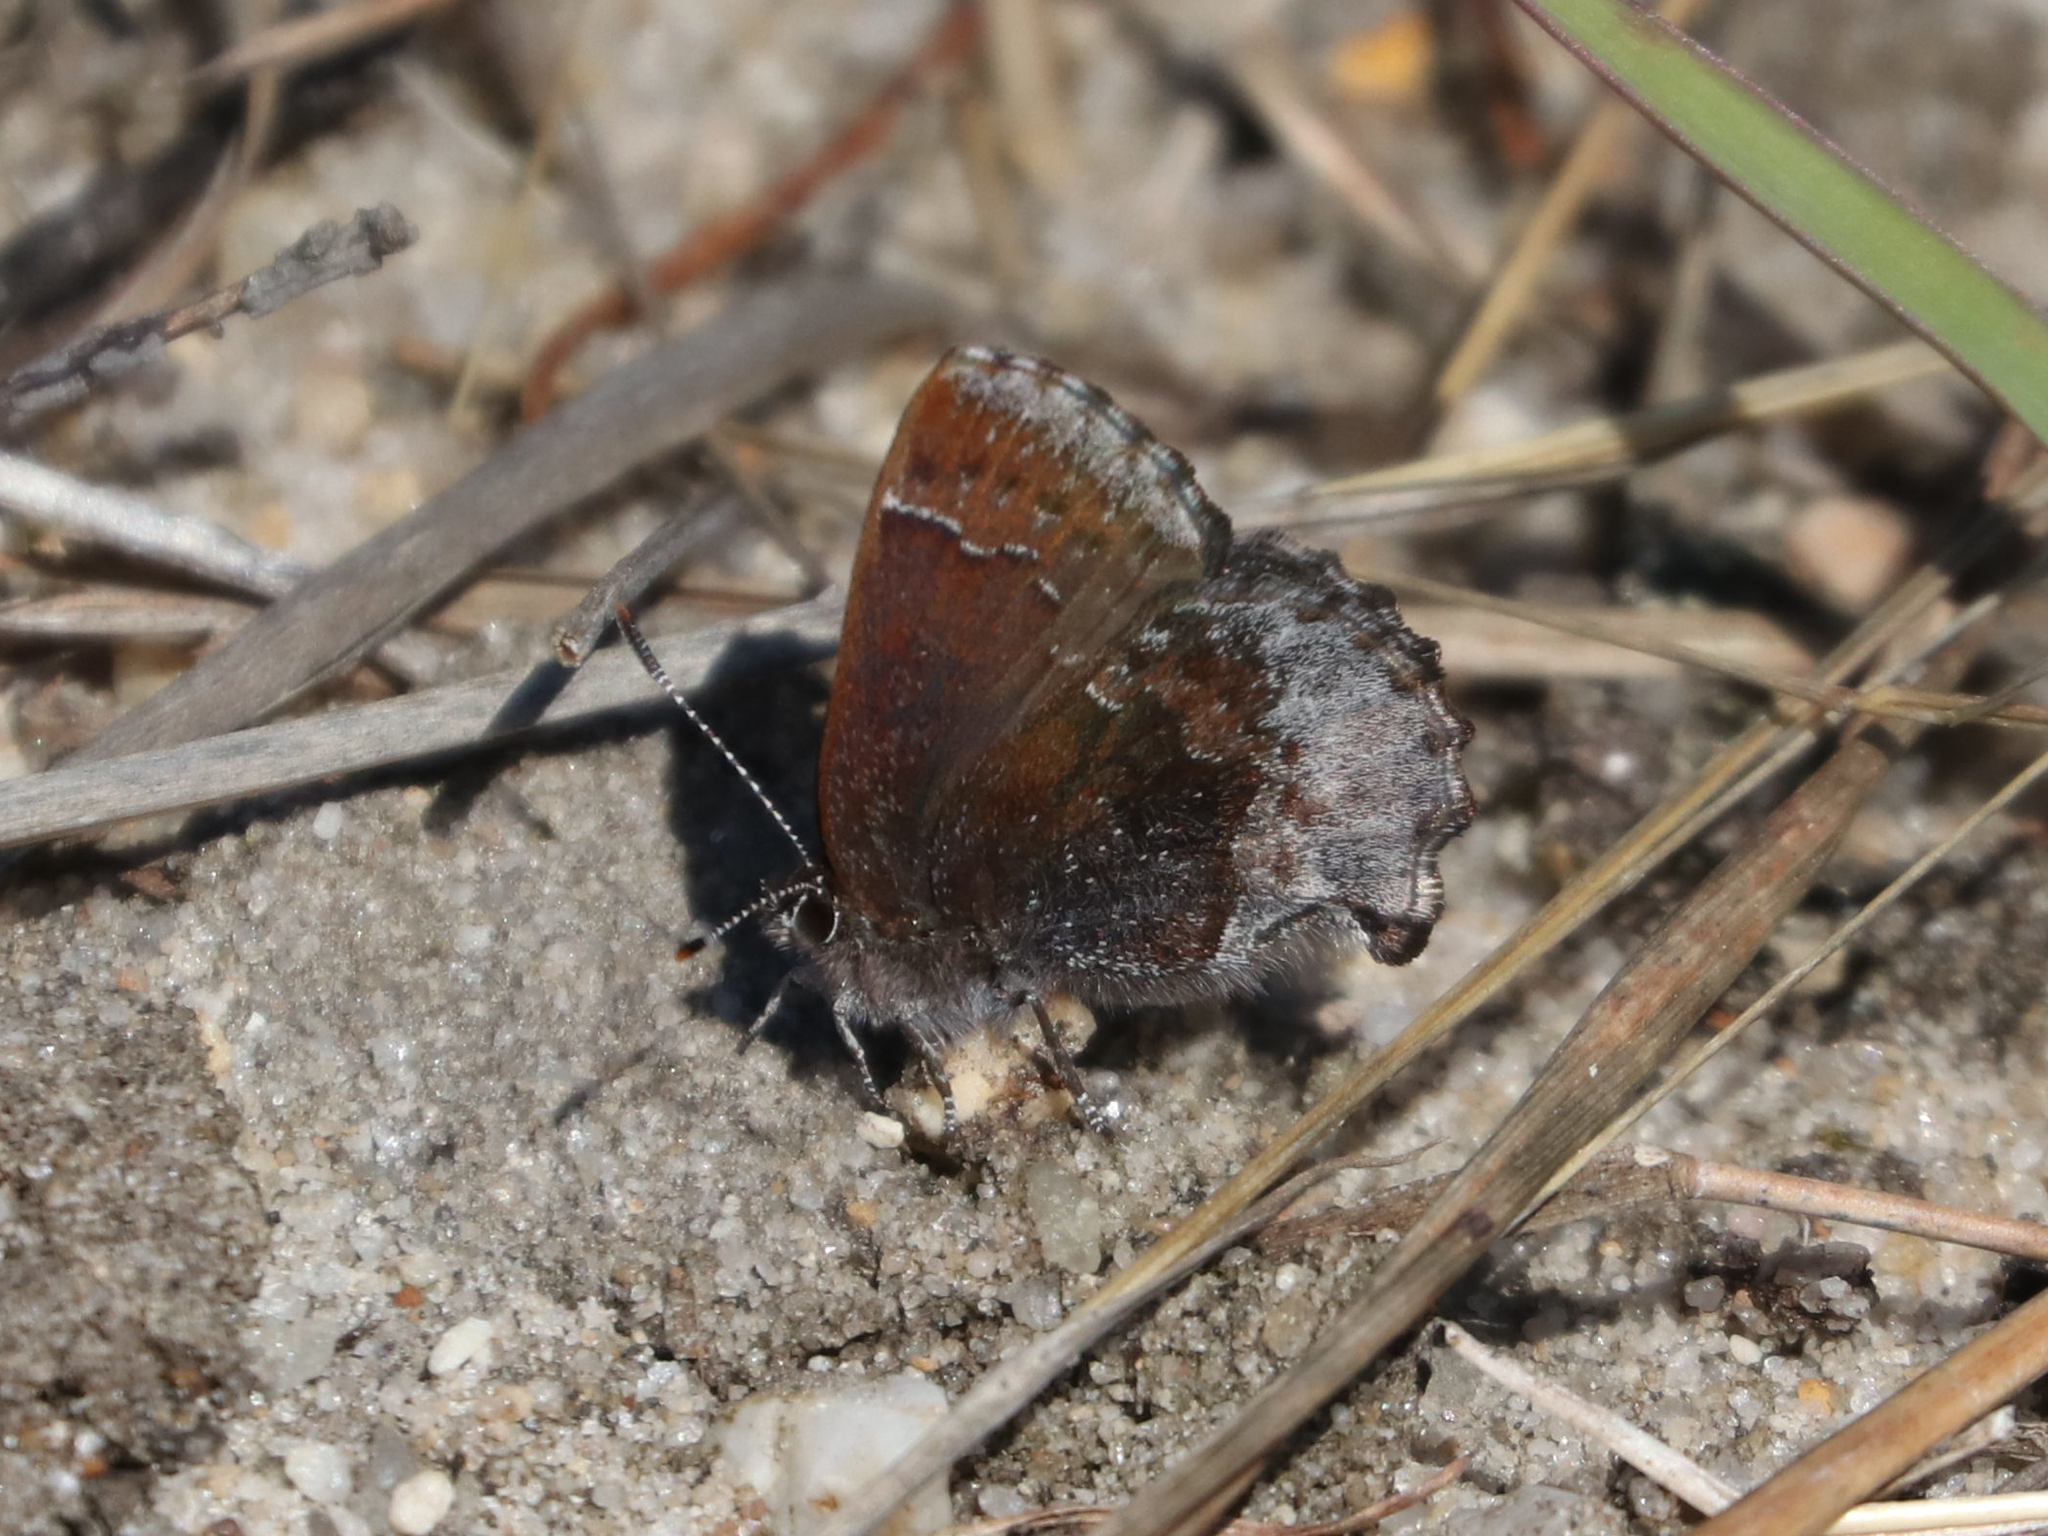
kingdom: Animalia
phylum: Arthropoda
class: Insecta
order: Lepidoptera
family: Lycaenidae
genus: Callophrys
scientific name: Callophrys polios
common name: Hoary elfin
